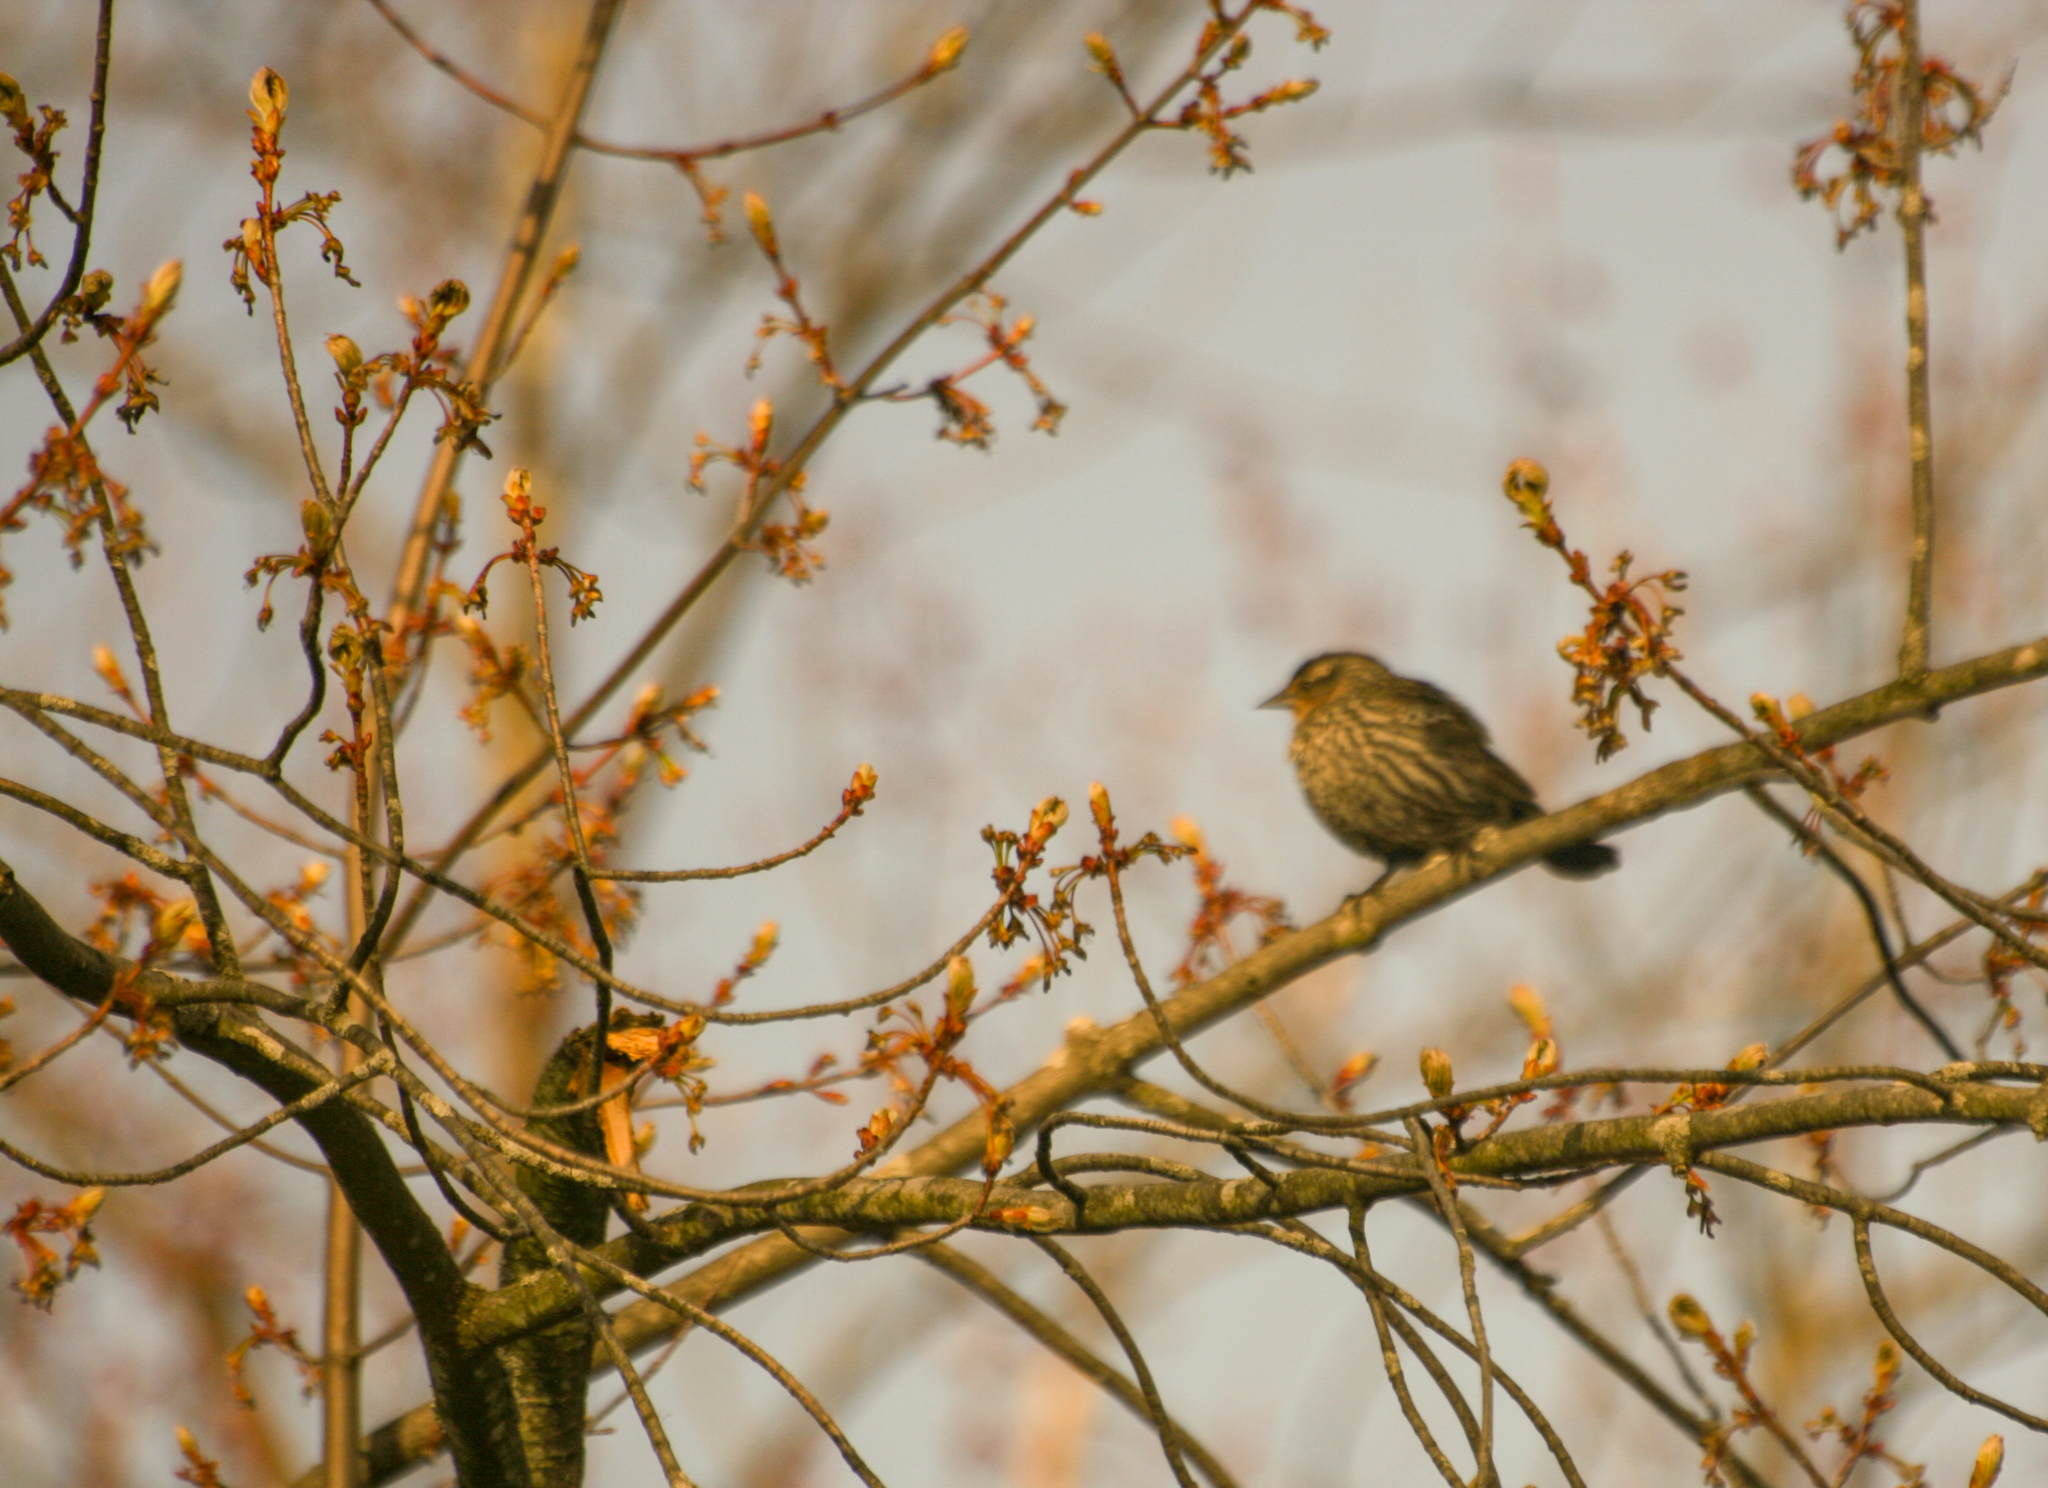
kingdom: Animalia
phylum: Chordata
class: Aves
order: Passeriformes
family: Icteridae
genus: Agelaius
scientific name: Agelaius phoeniceus
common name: Red-winged blackbird
